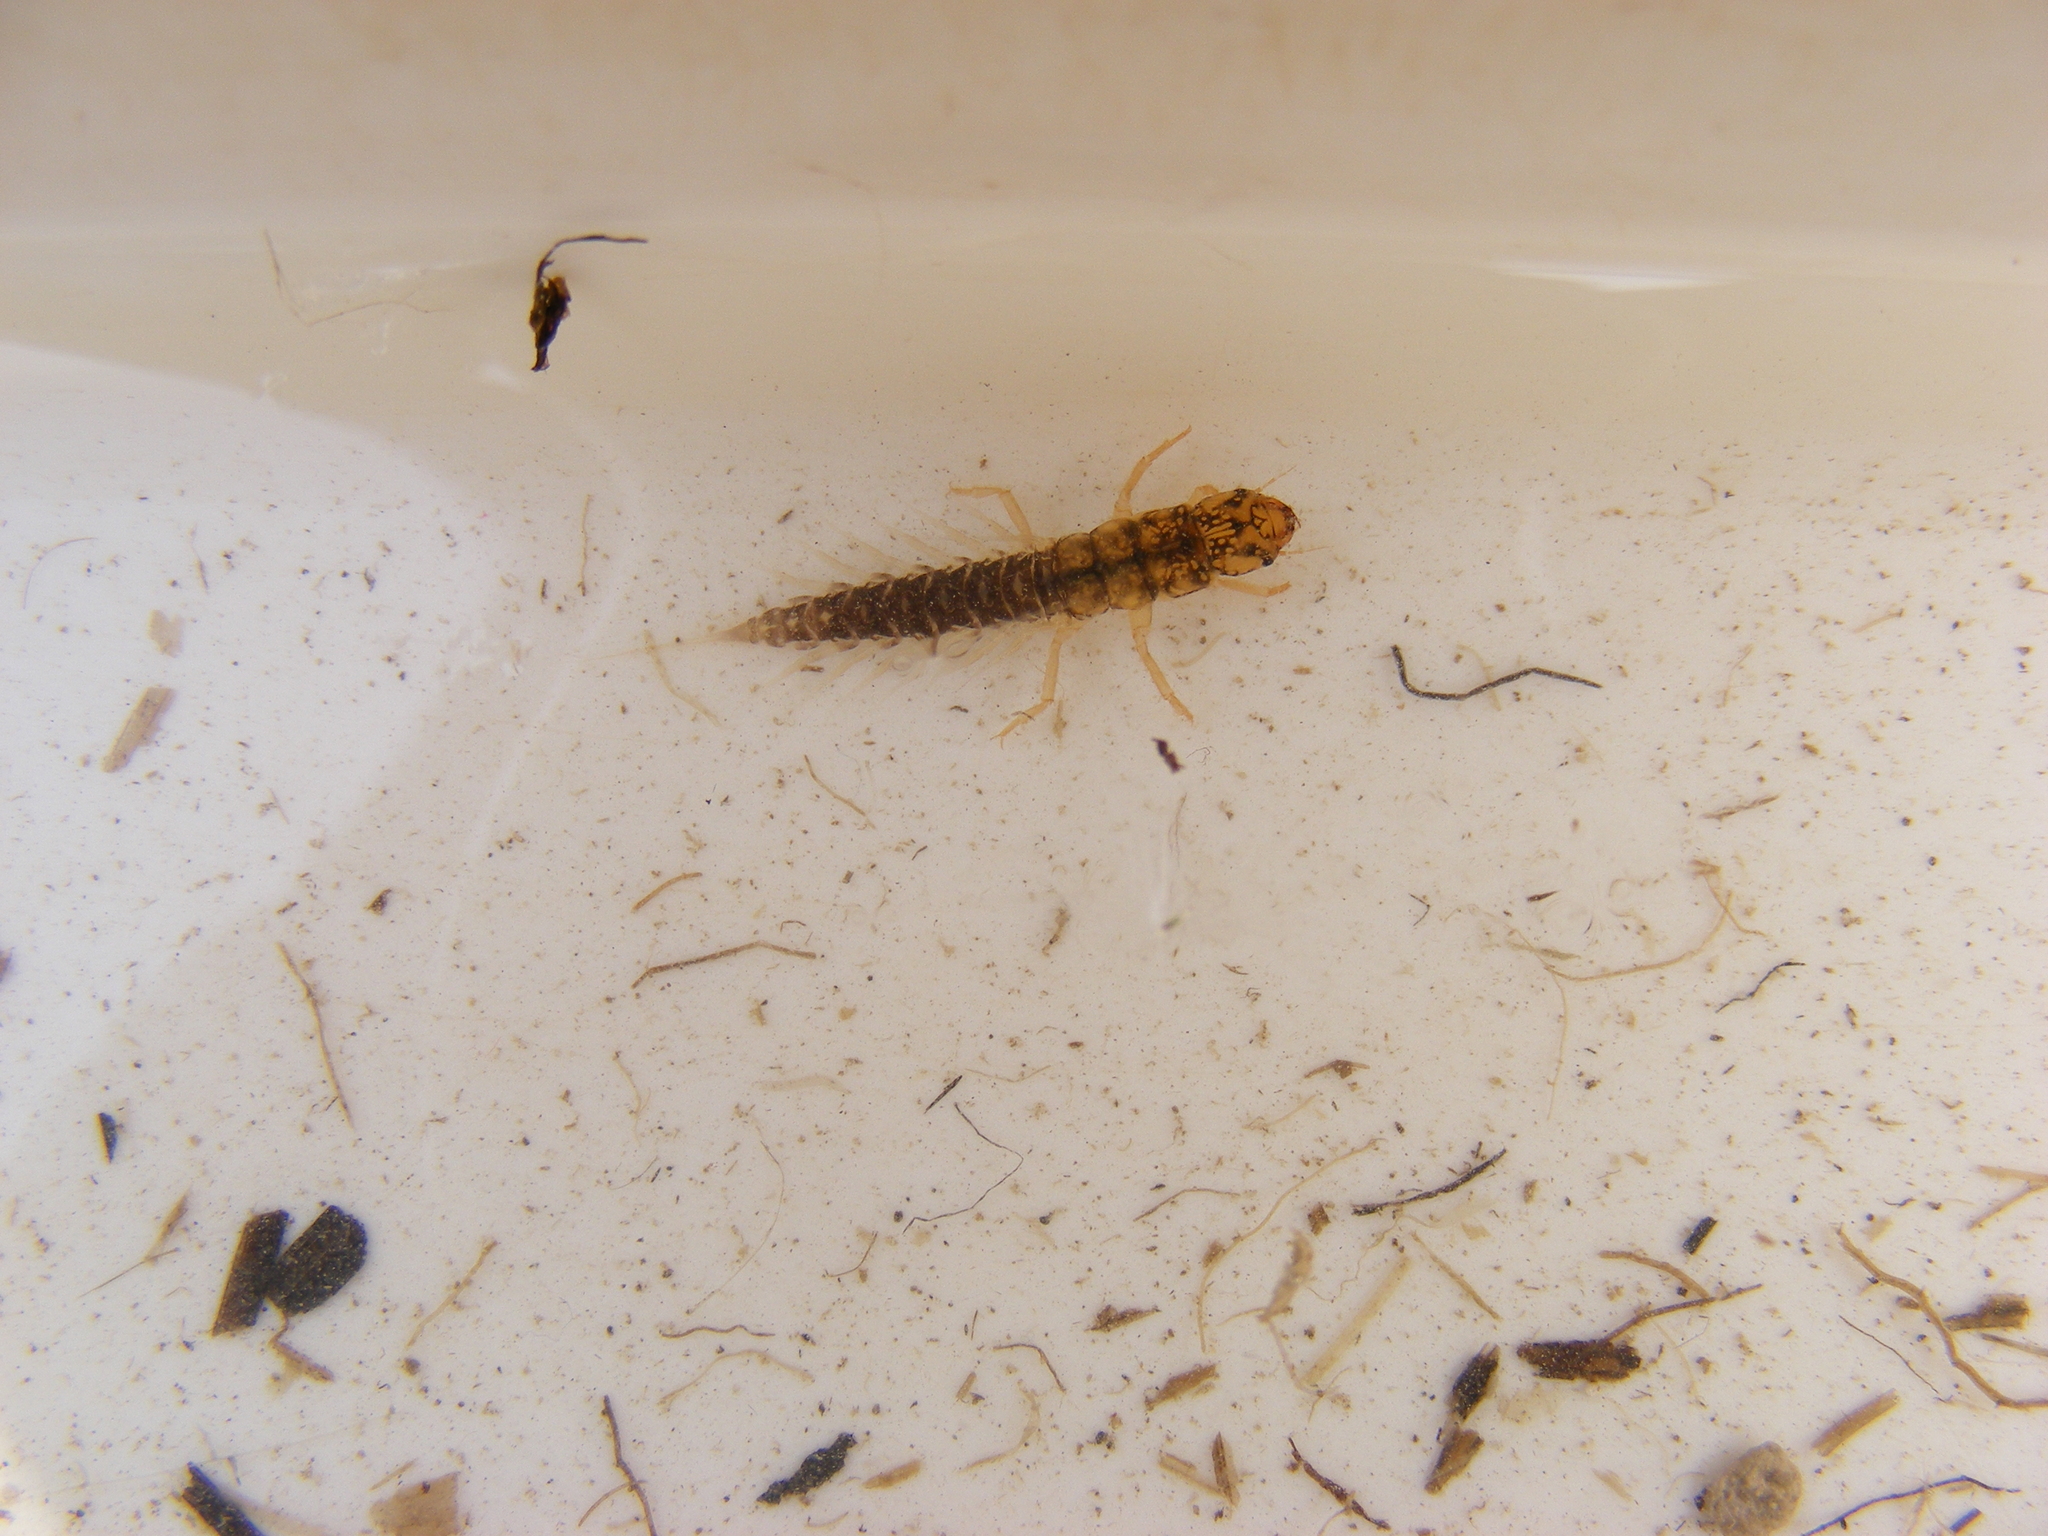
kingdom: Animalia
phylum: Arthropoda
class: Insecta
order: Megaloptera
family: Sialidae
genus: Sialis
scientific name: Sialis lutaria
